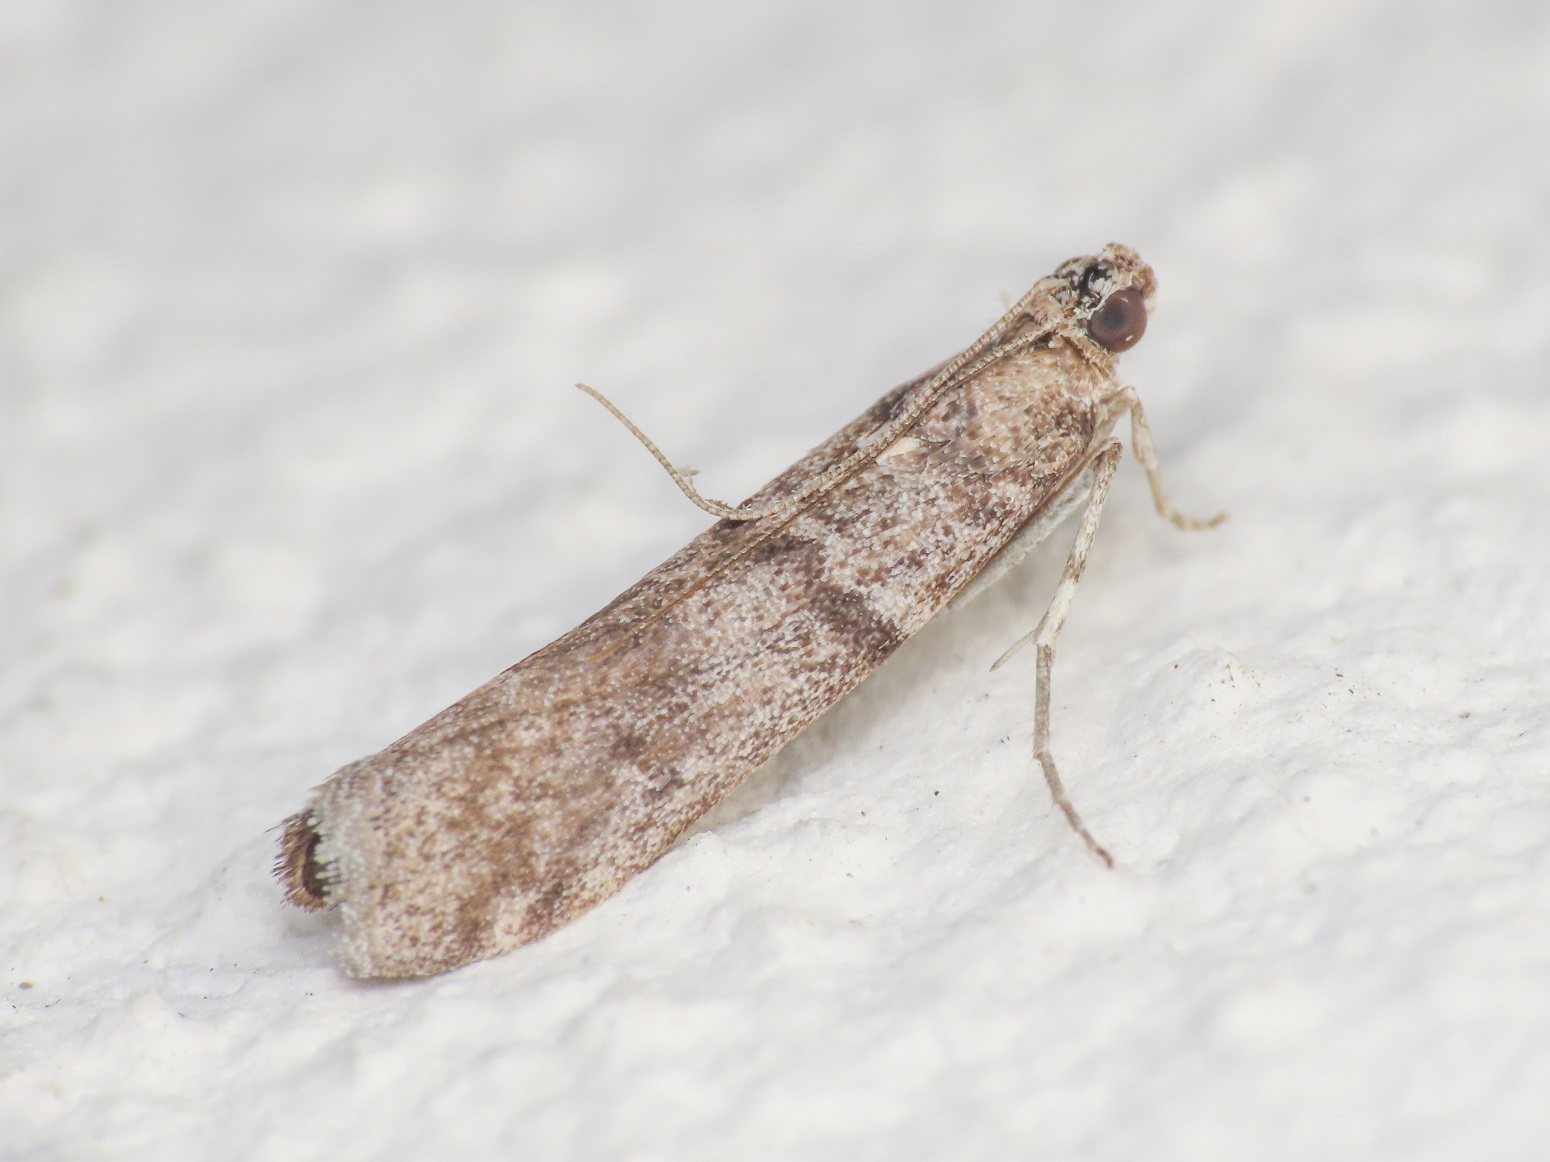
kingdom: Animalia
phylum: Arthropoda
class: Insecta
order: Lepidoptera
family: Pyralidae
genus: Myelois
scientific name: Myelois tabidella
